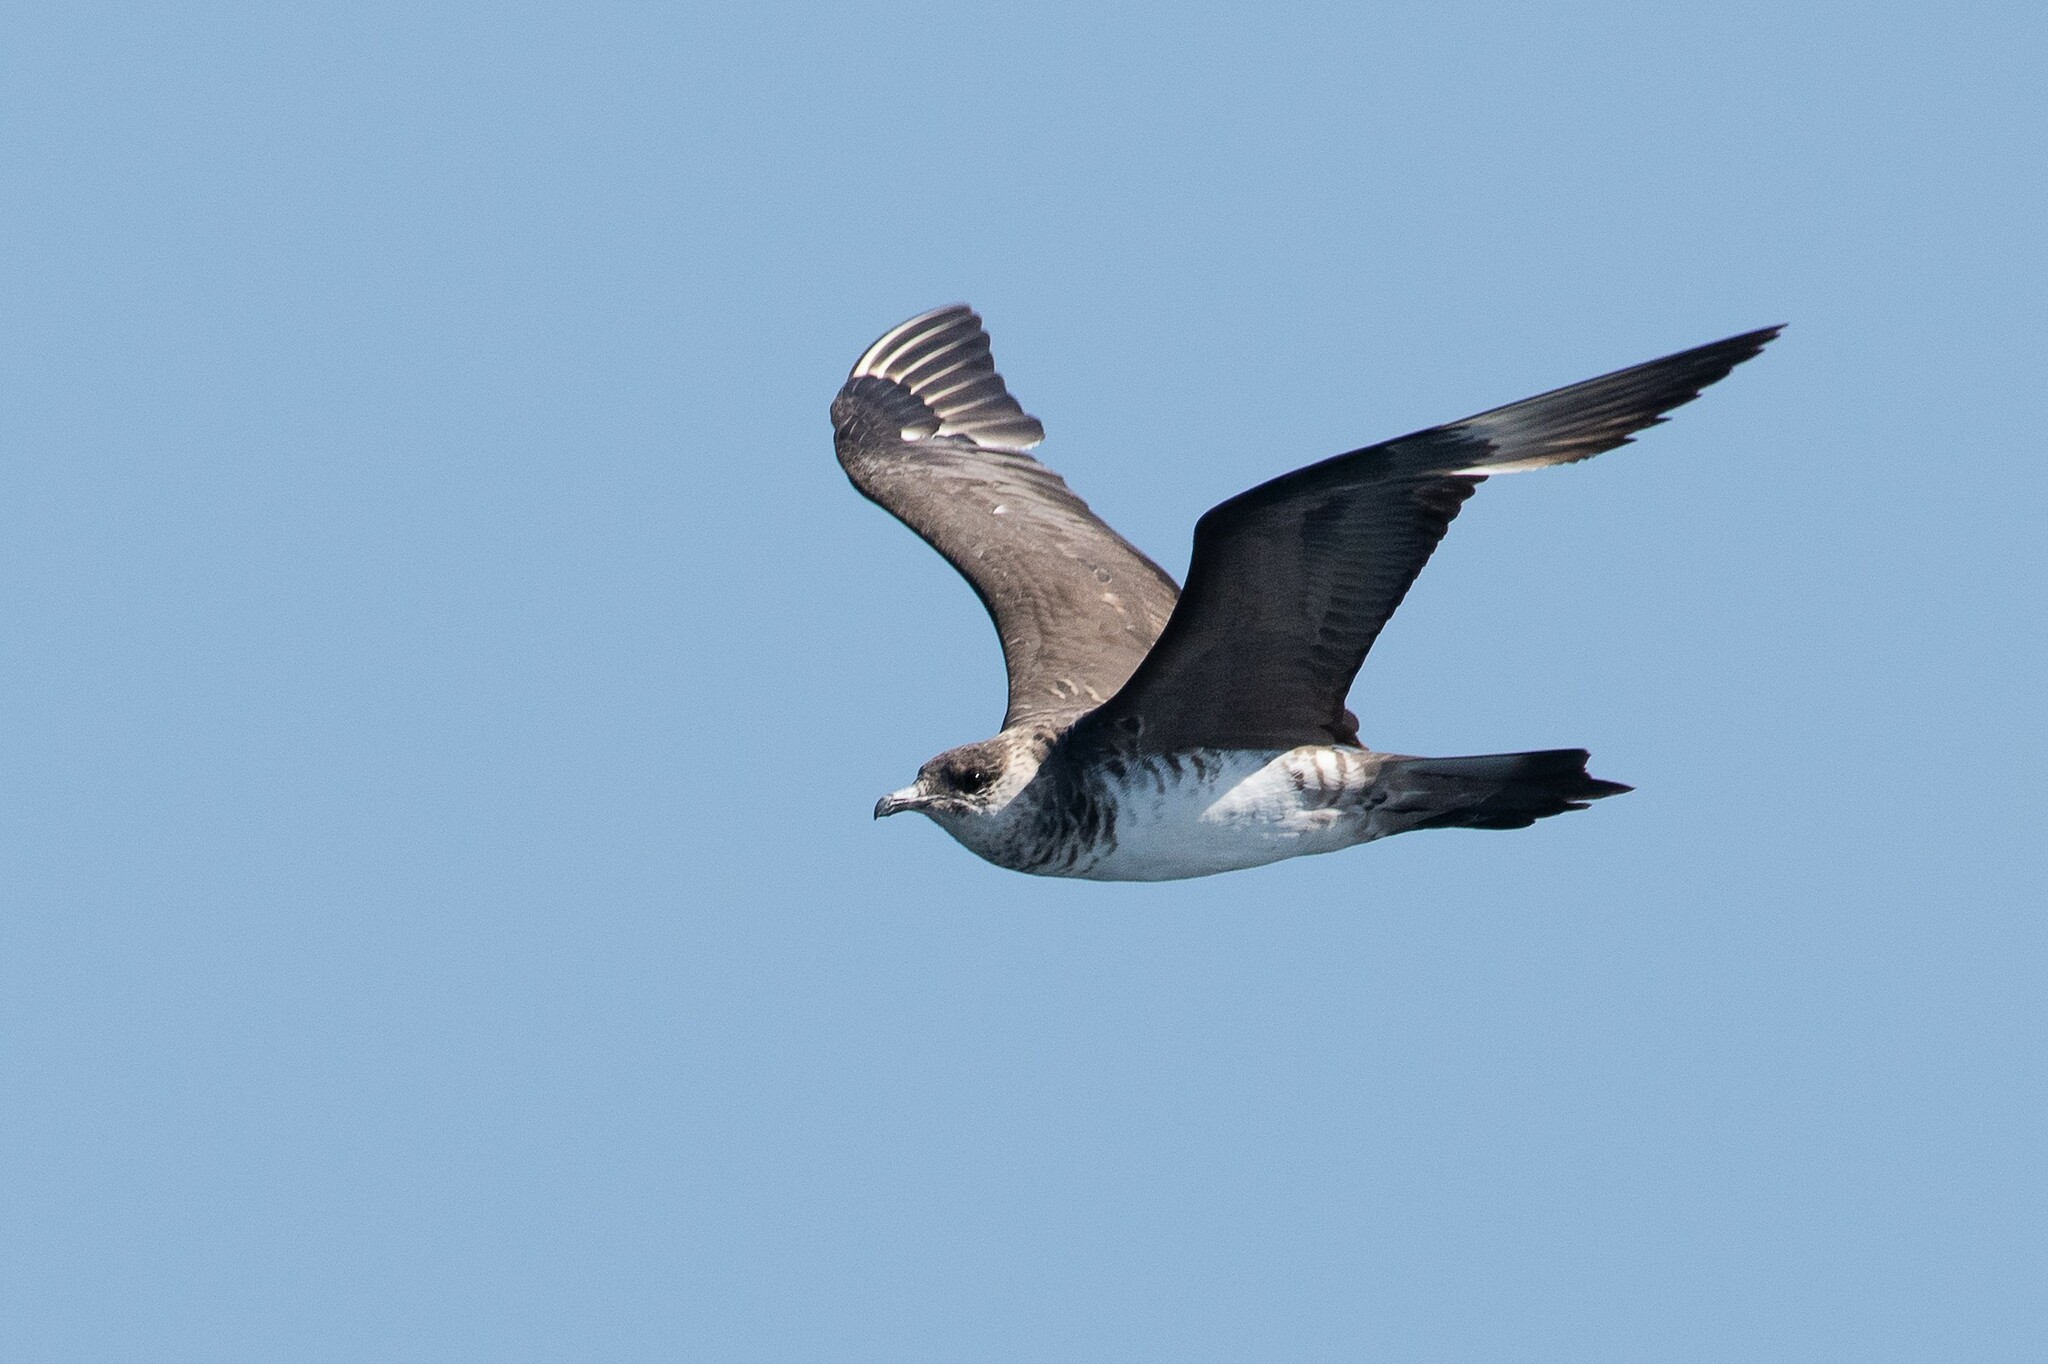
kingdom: Animalia
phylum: Chordata
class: Aves
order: Charadriiformes
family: Stercorariidae
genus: Stercorarius
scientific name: Stercorarius pomarinus
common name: Pomarine jaeger
